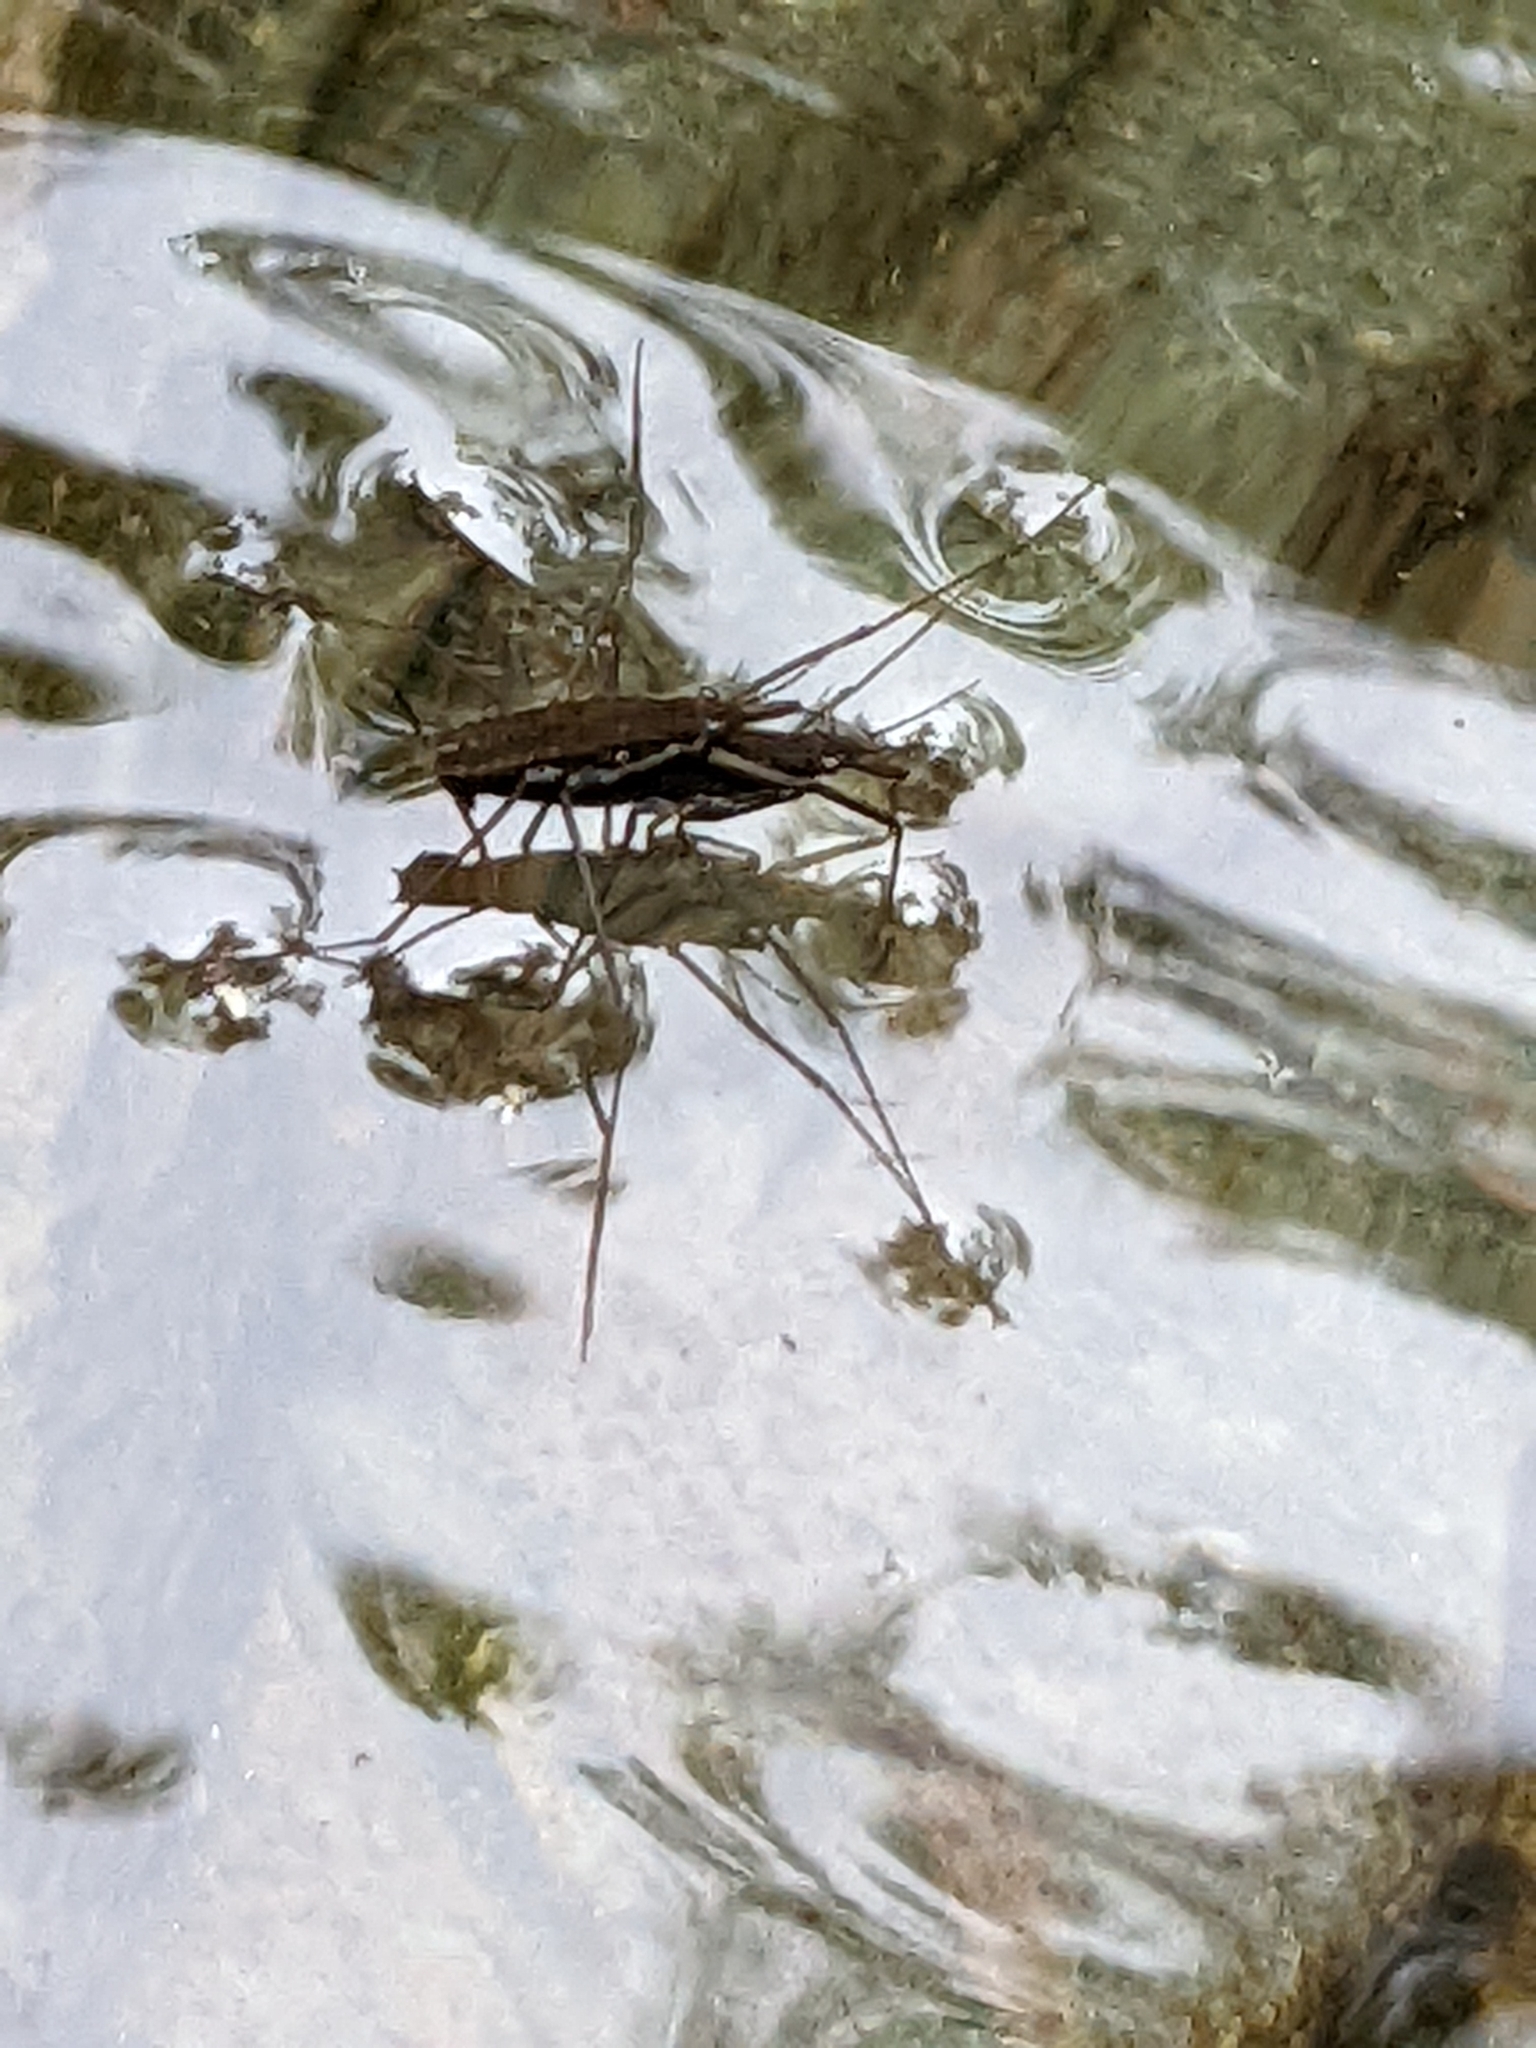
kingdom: Animalia
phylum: Arthropoda
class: Insecta
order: Hemiptera
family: Gerridae
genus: Aquarius
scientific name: Aquarius remigis
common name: Common water strider
